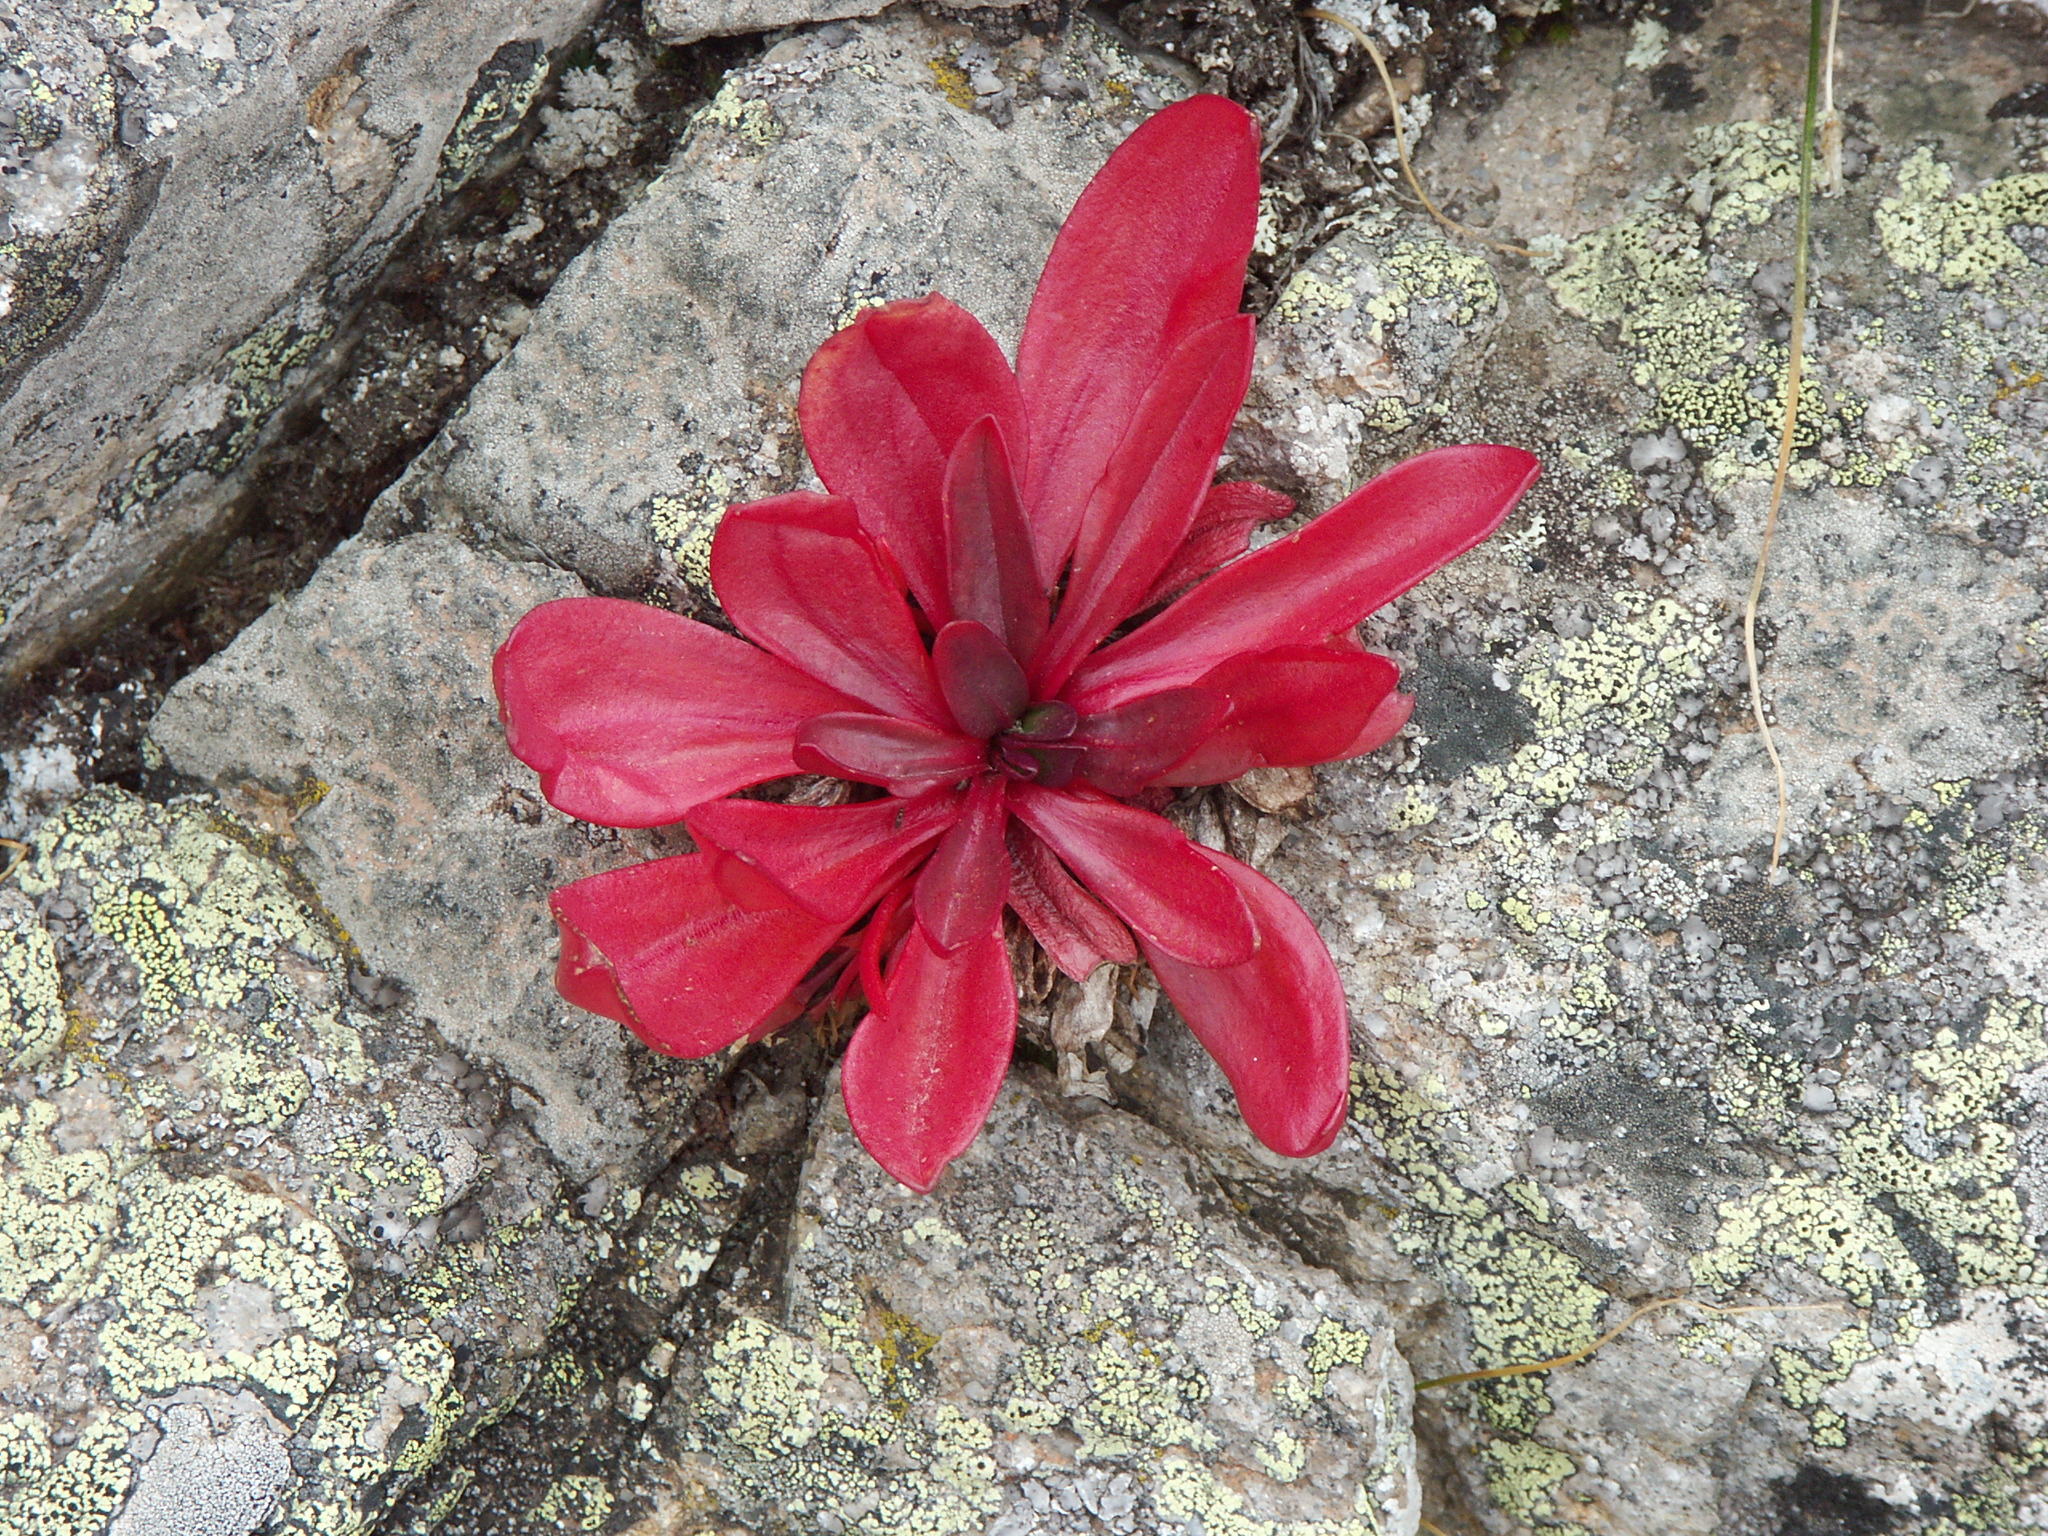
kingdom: Plantae
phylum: Tracheophyta
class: Magnoliopsida
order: Caryophyllales
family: Montiaceae
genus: Claytonia
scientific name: Claytonia megarhiza
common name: Alpine spring beauty
